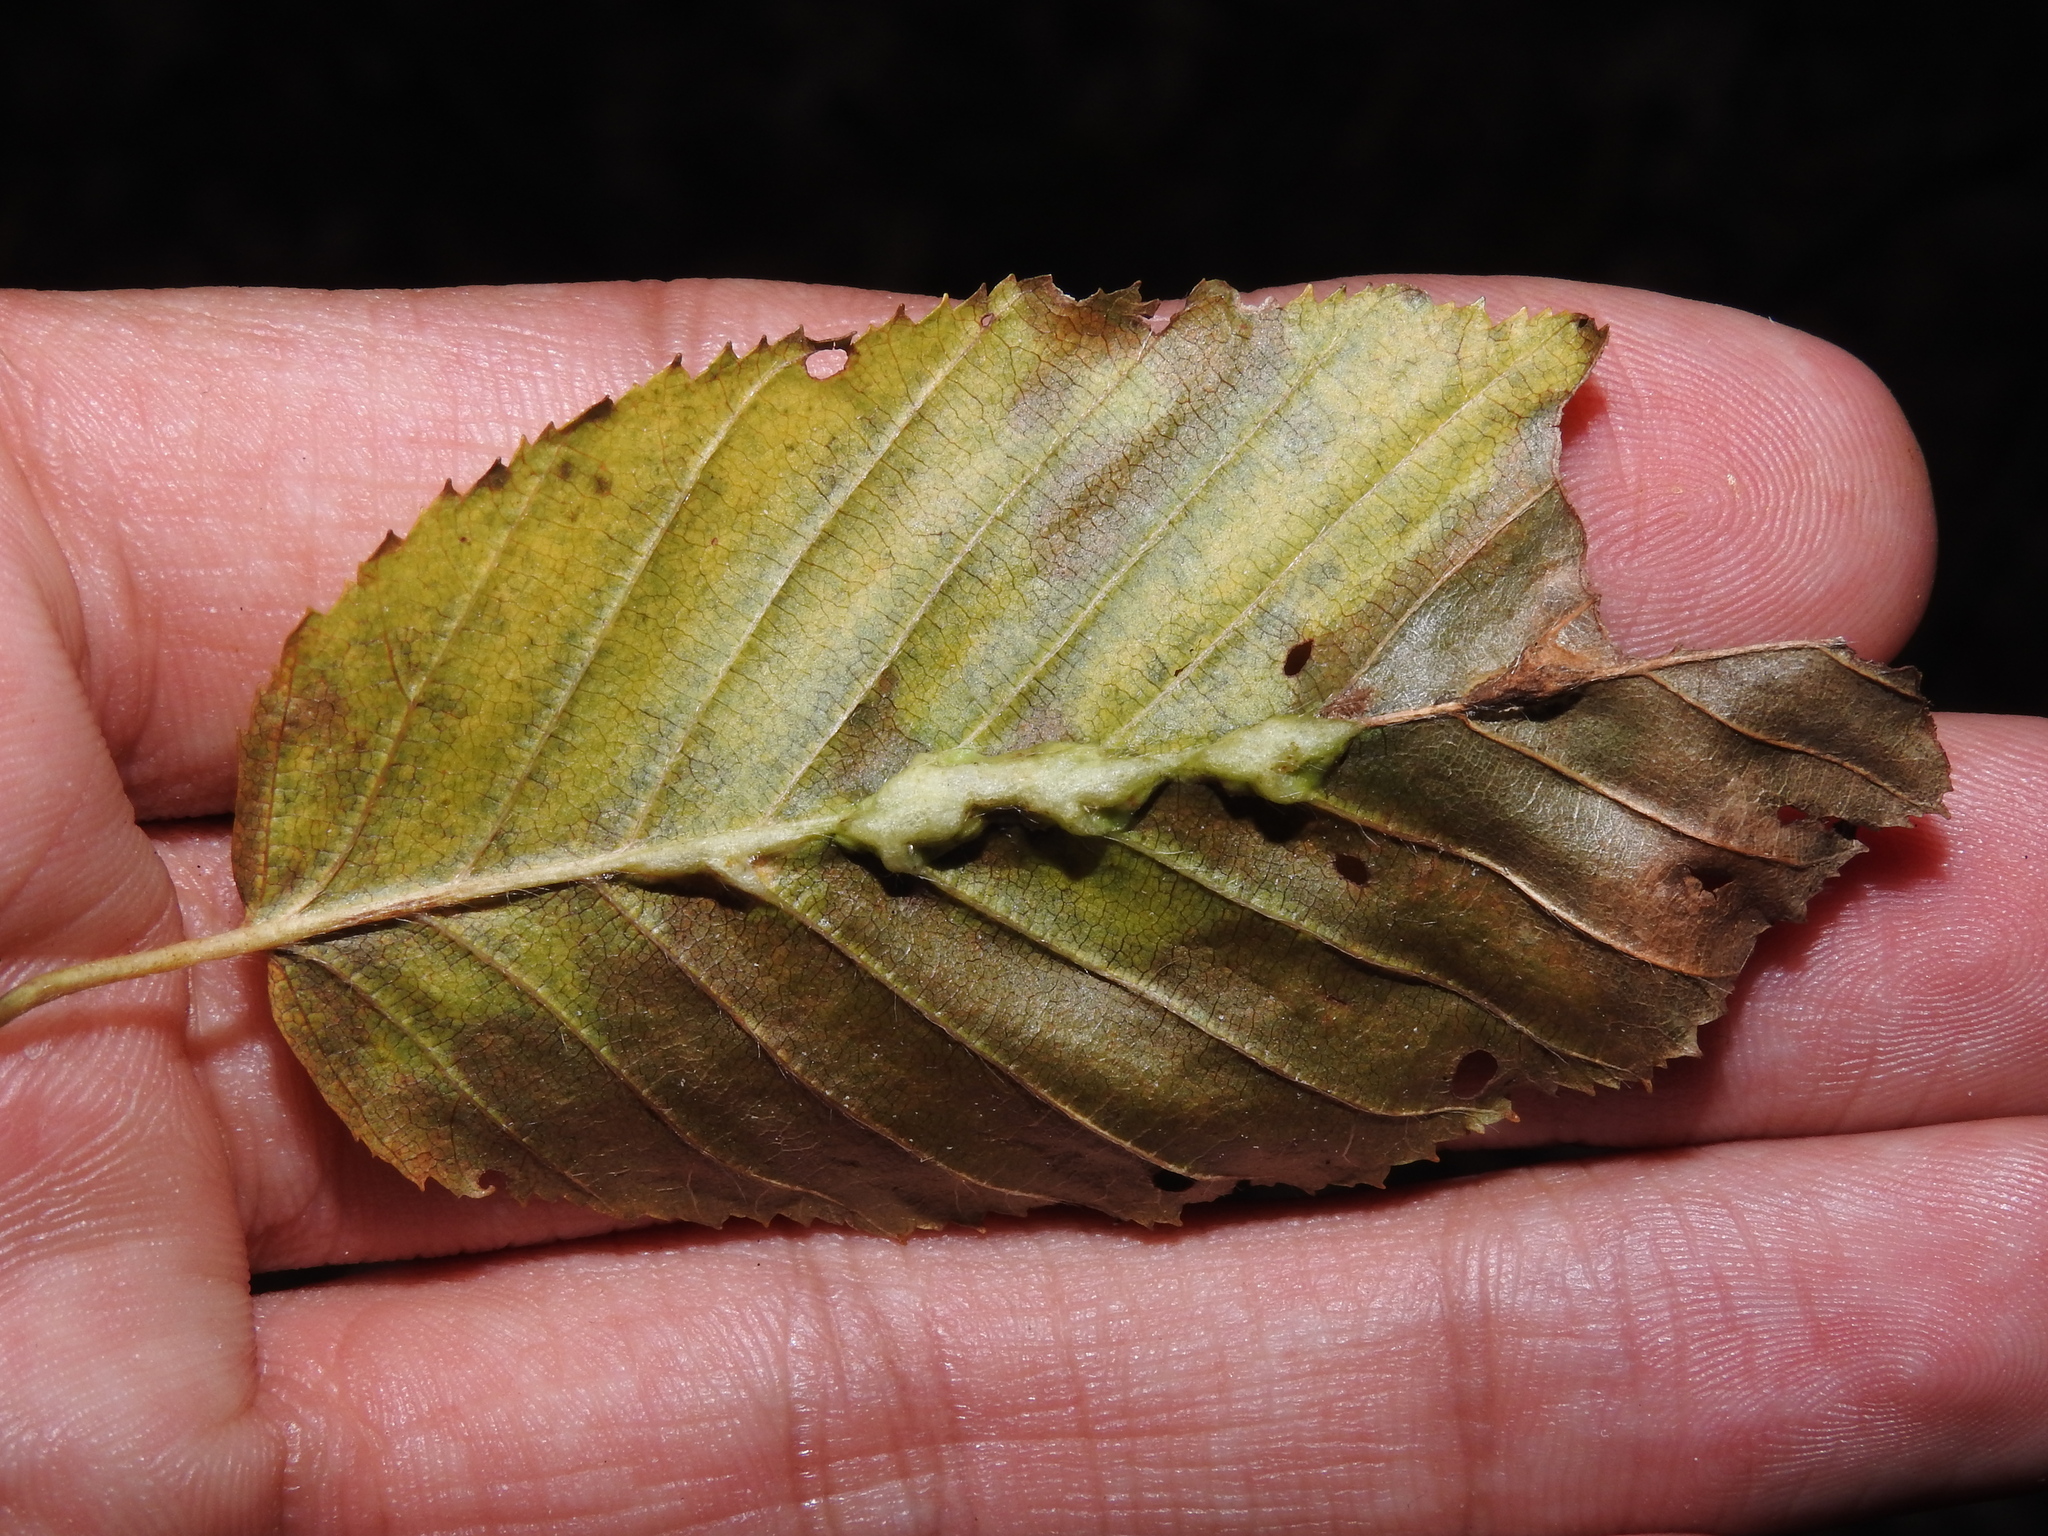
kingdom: Animalia
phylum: Arthropoda
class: Insecta
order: Diptera
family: Cecidomyiidae
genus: Zygiobia
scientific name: Zygiobia carpini
